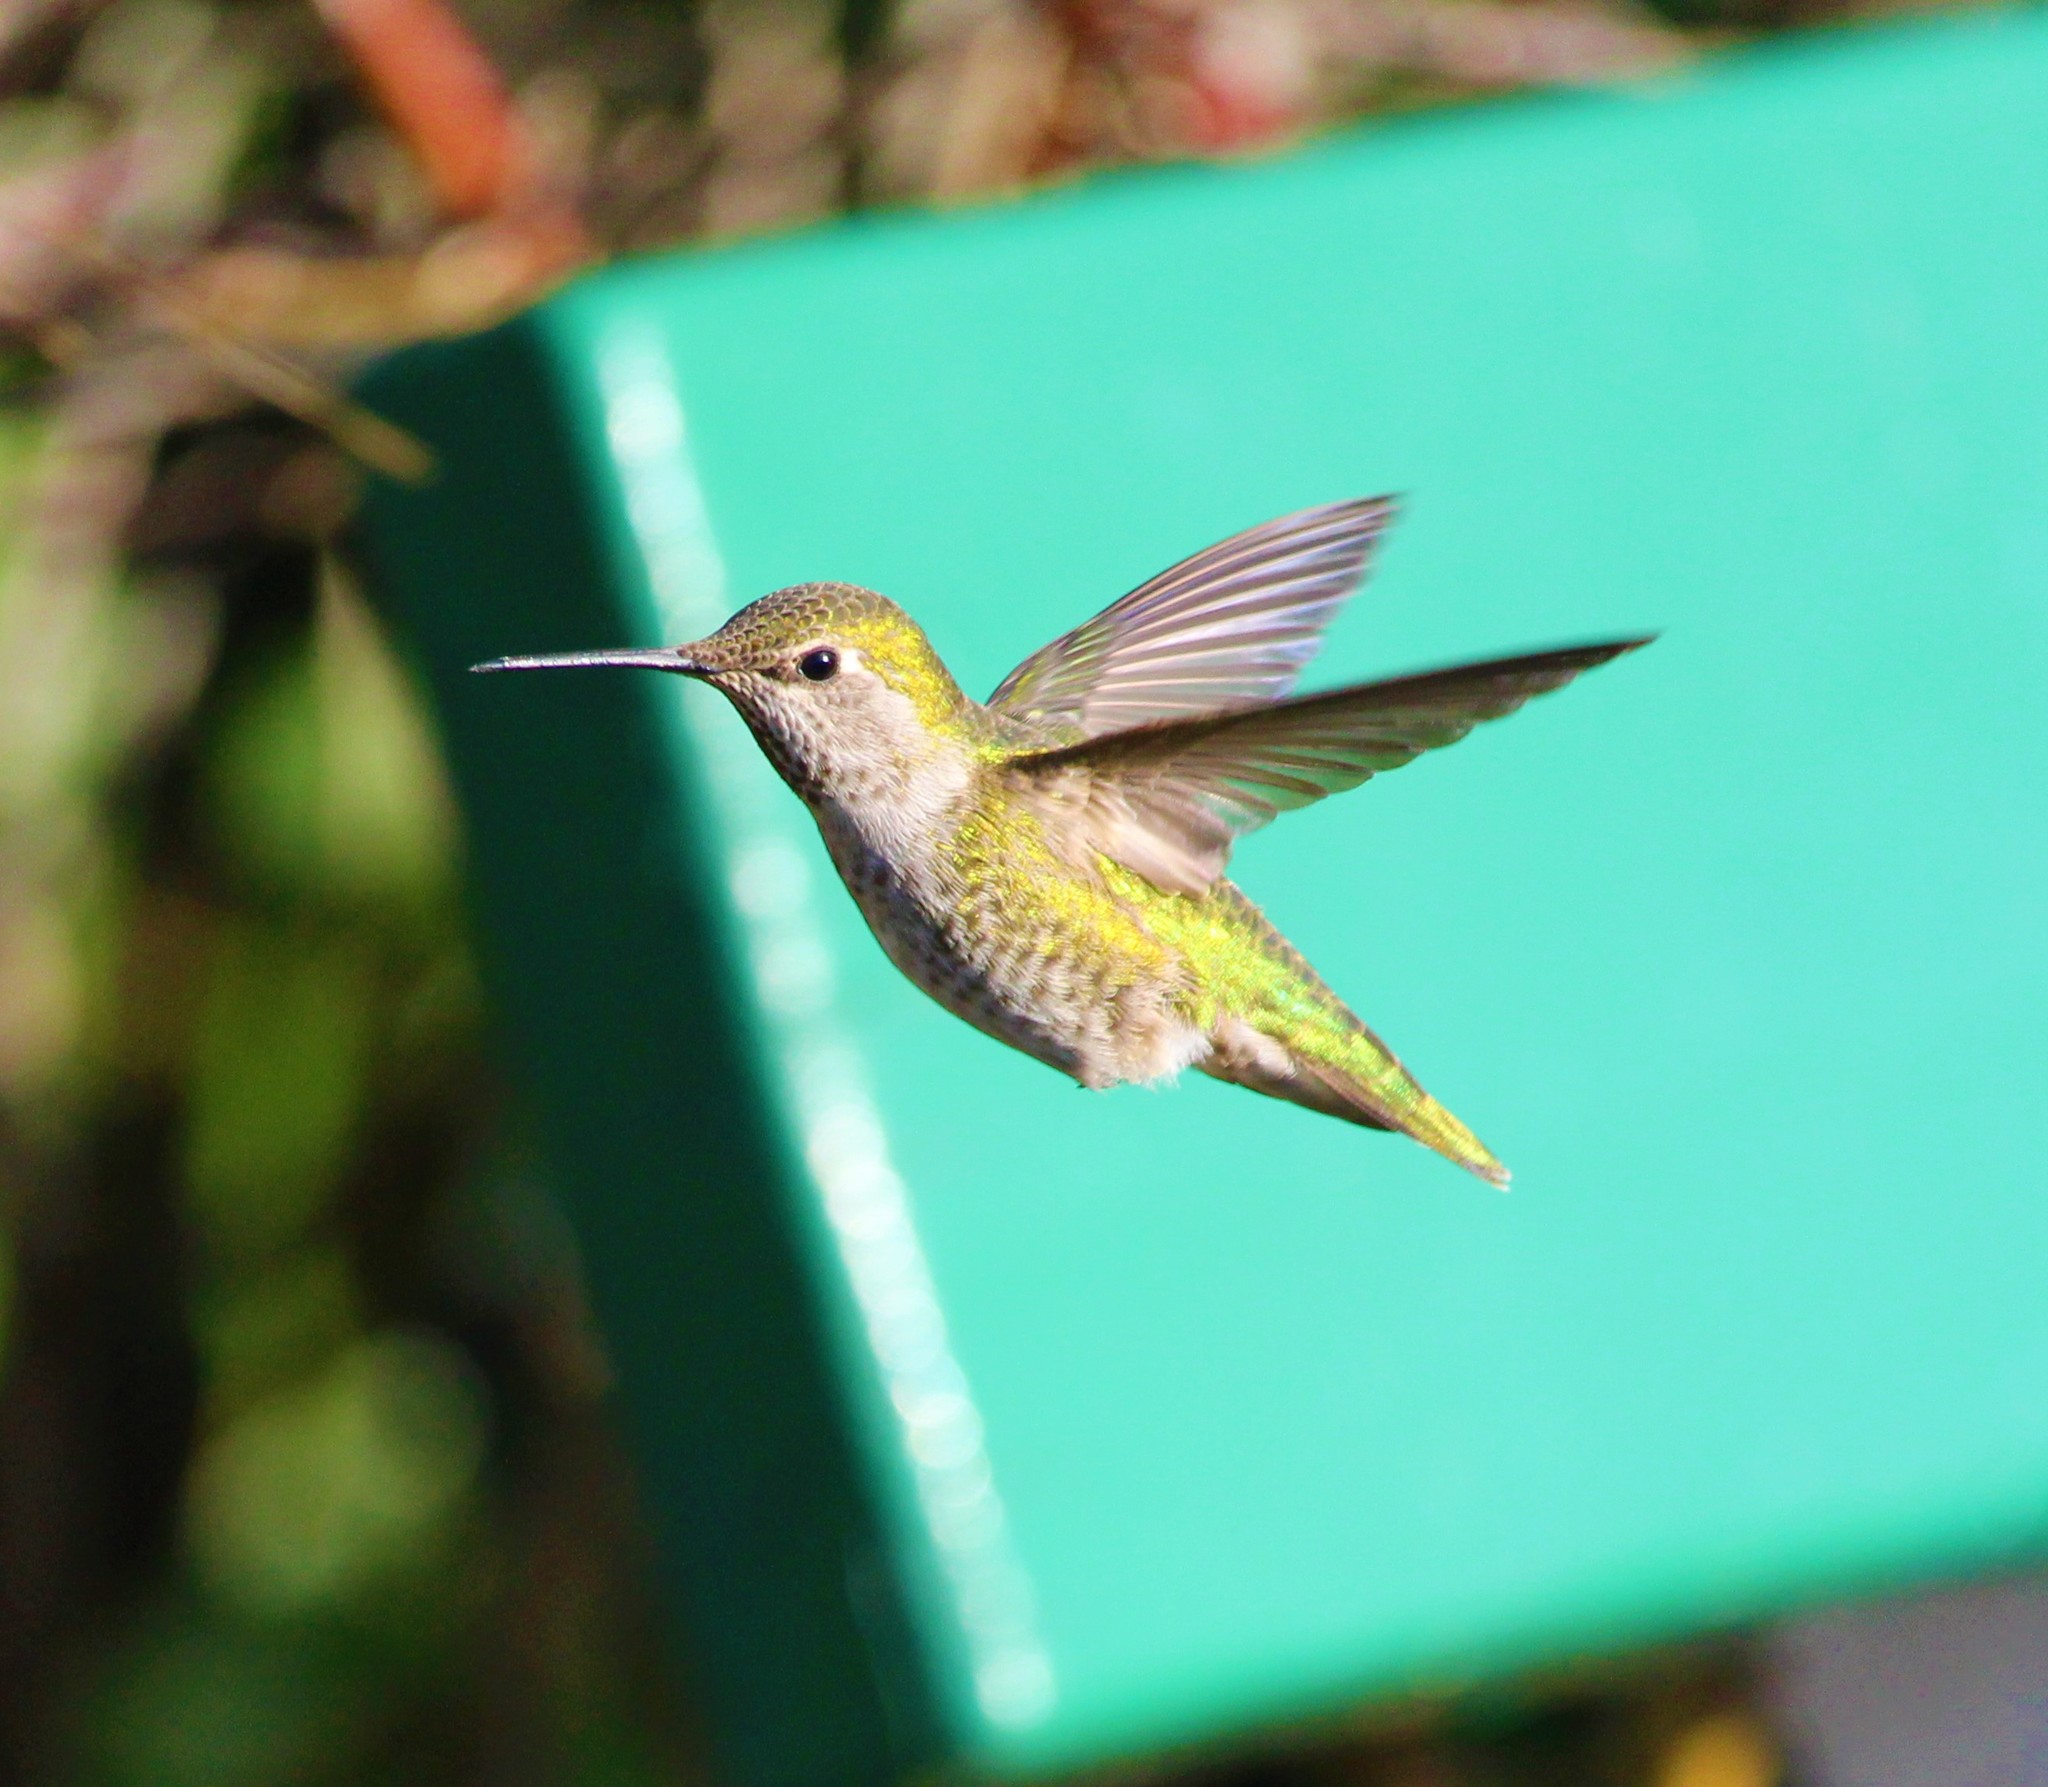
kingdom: Animalia
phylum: Chordata
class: Aves
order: Apodiformes
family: Trochilidae
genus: Calypte
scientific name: Calypte anna
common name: Anna's hummingbird
